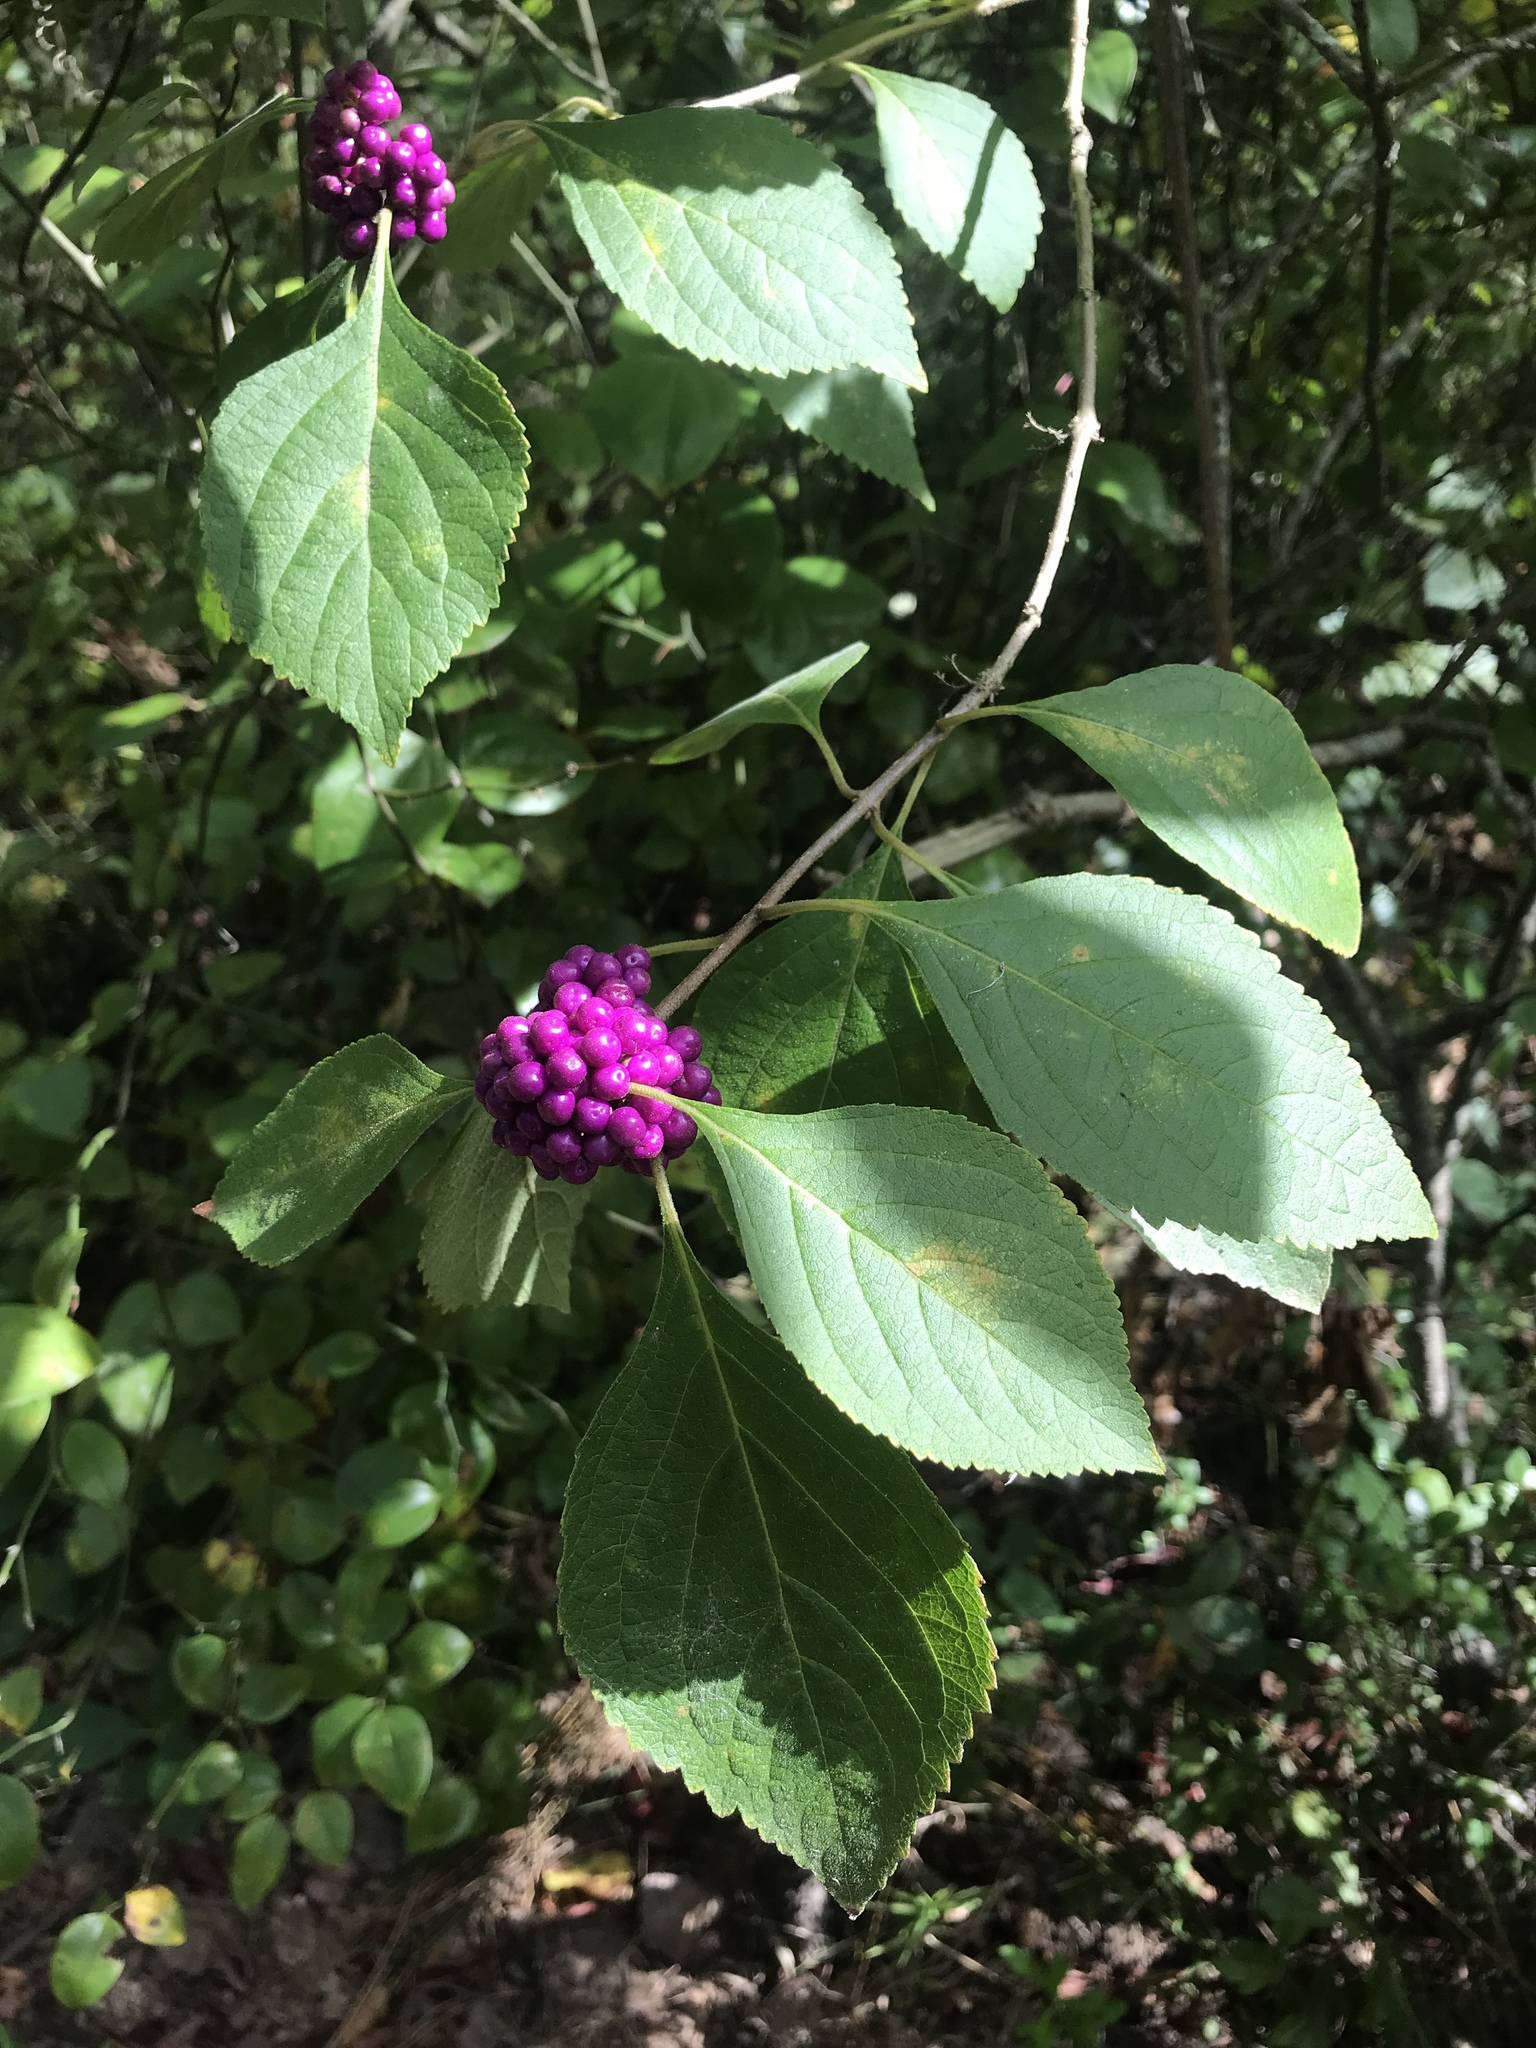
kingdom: Plantae
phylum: Tracheophyta
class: Magnoliopsida
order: Lamiales
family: Lamiaceae
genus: Callicarpa
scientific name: Callicarpa americana
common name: American beautyberry
